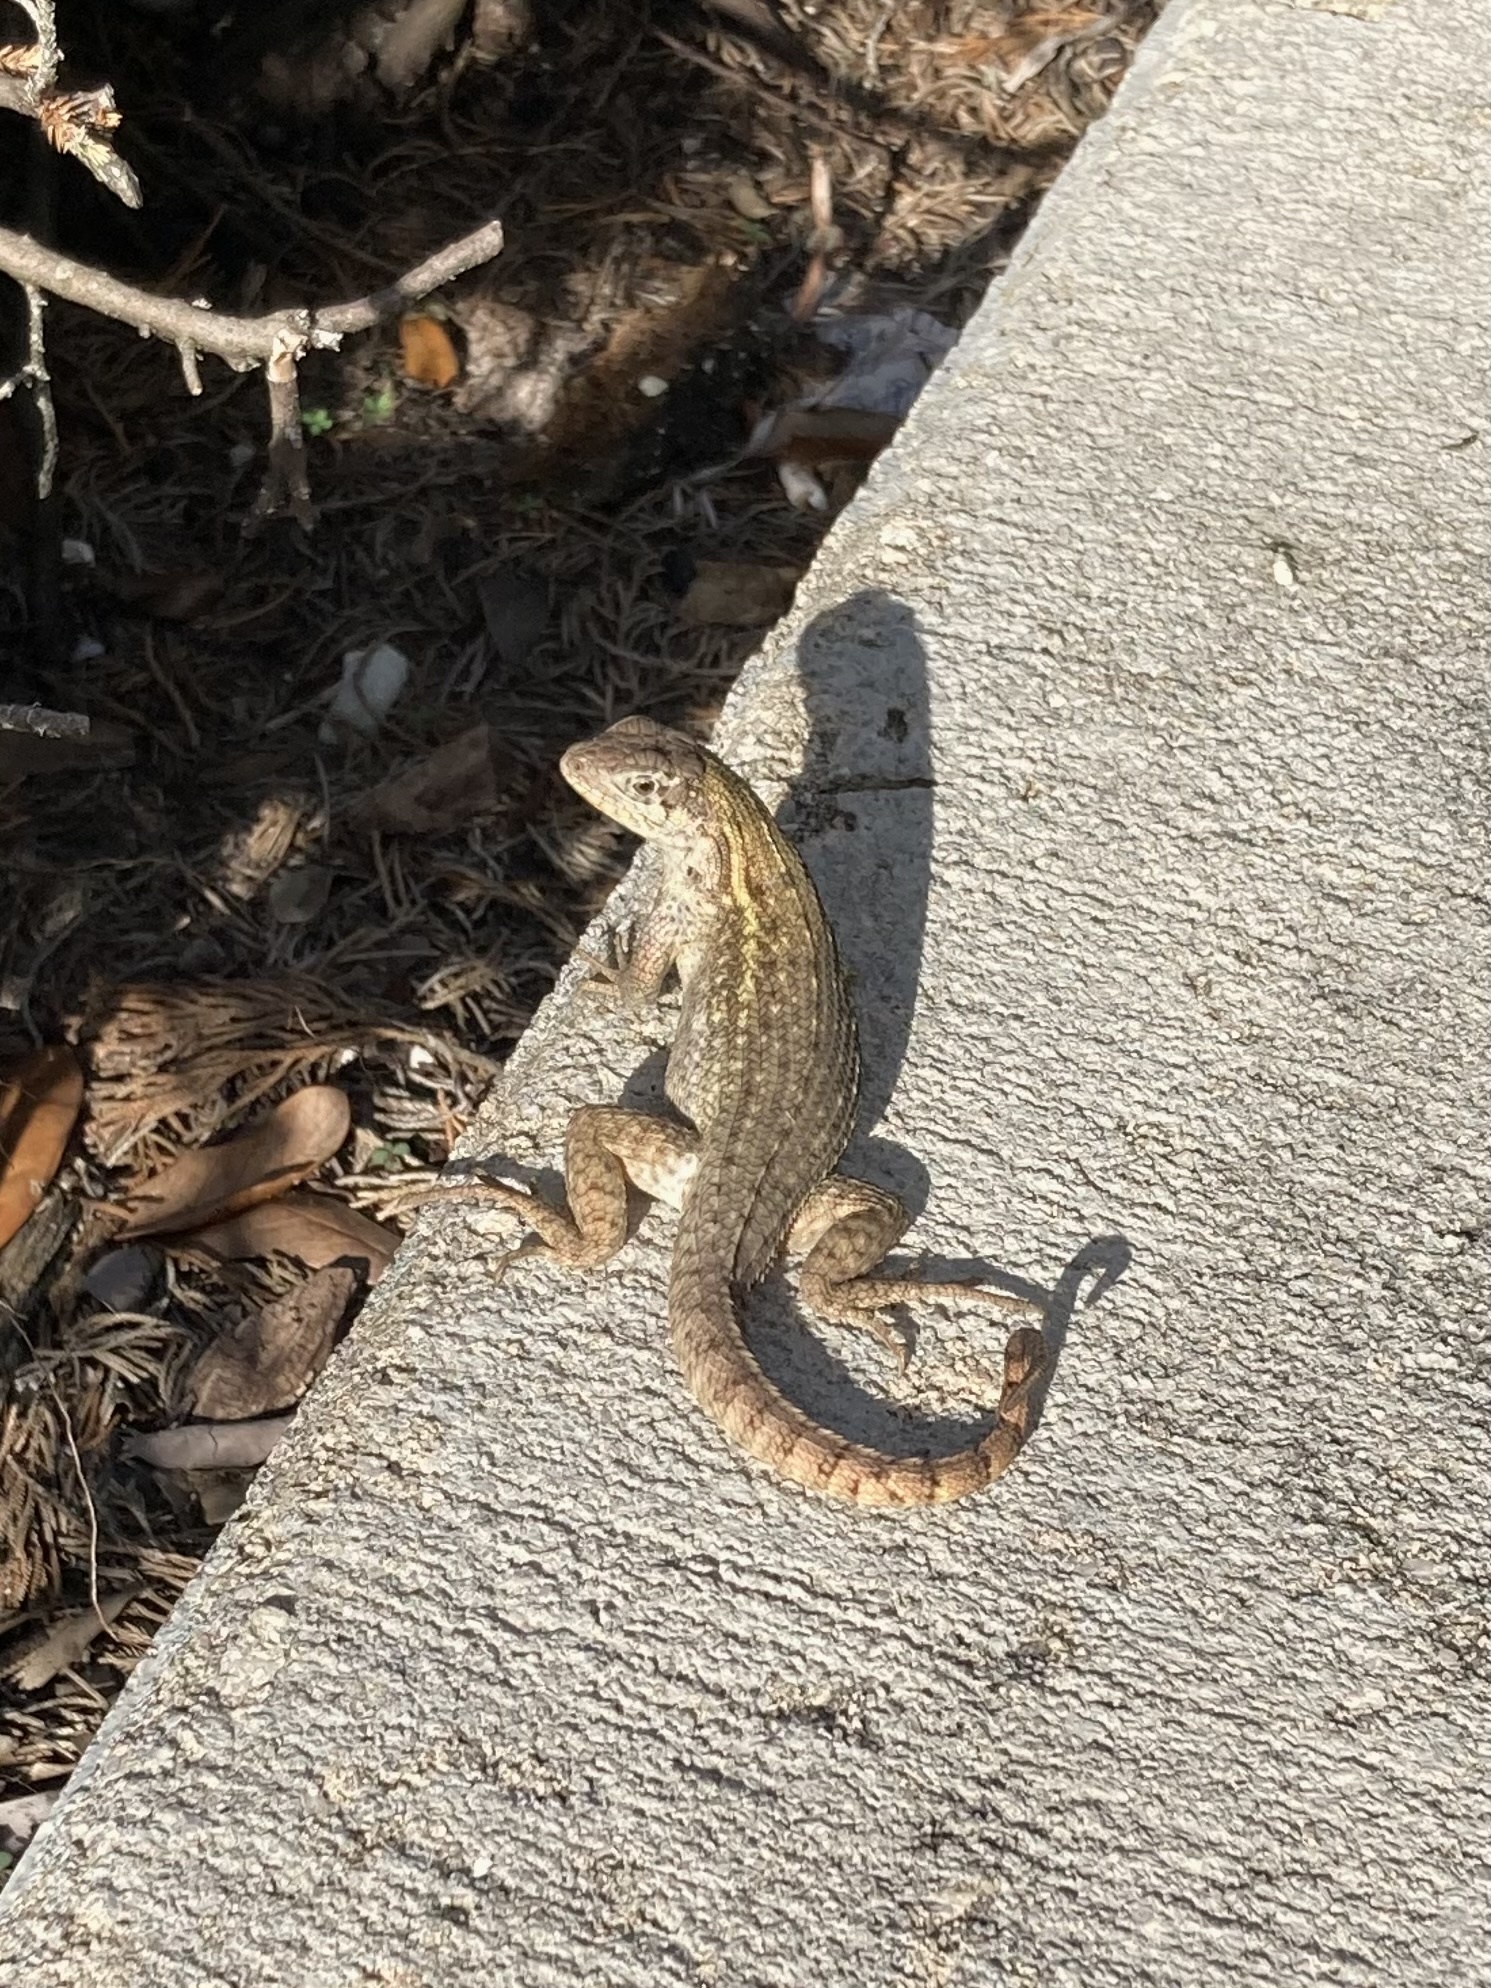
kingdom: Animalia
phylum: Chordata
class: Squamata
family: Leiocephalidae
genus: Leiocephalus
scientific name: Leiocephalus carinatus
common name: Northern curly-tailed lizard
